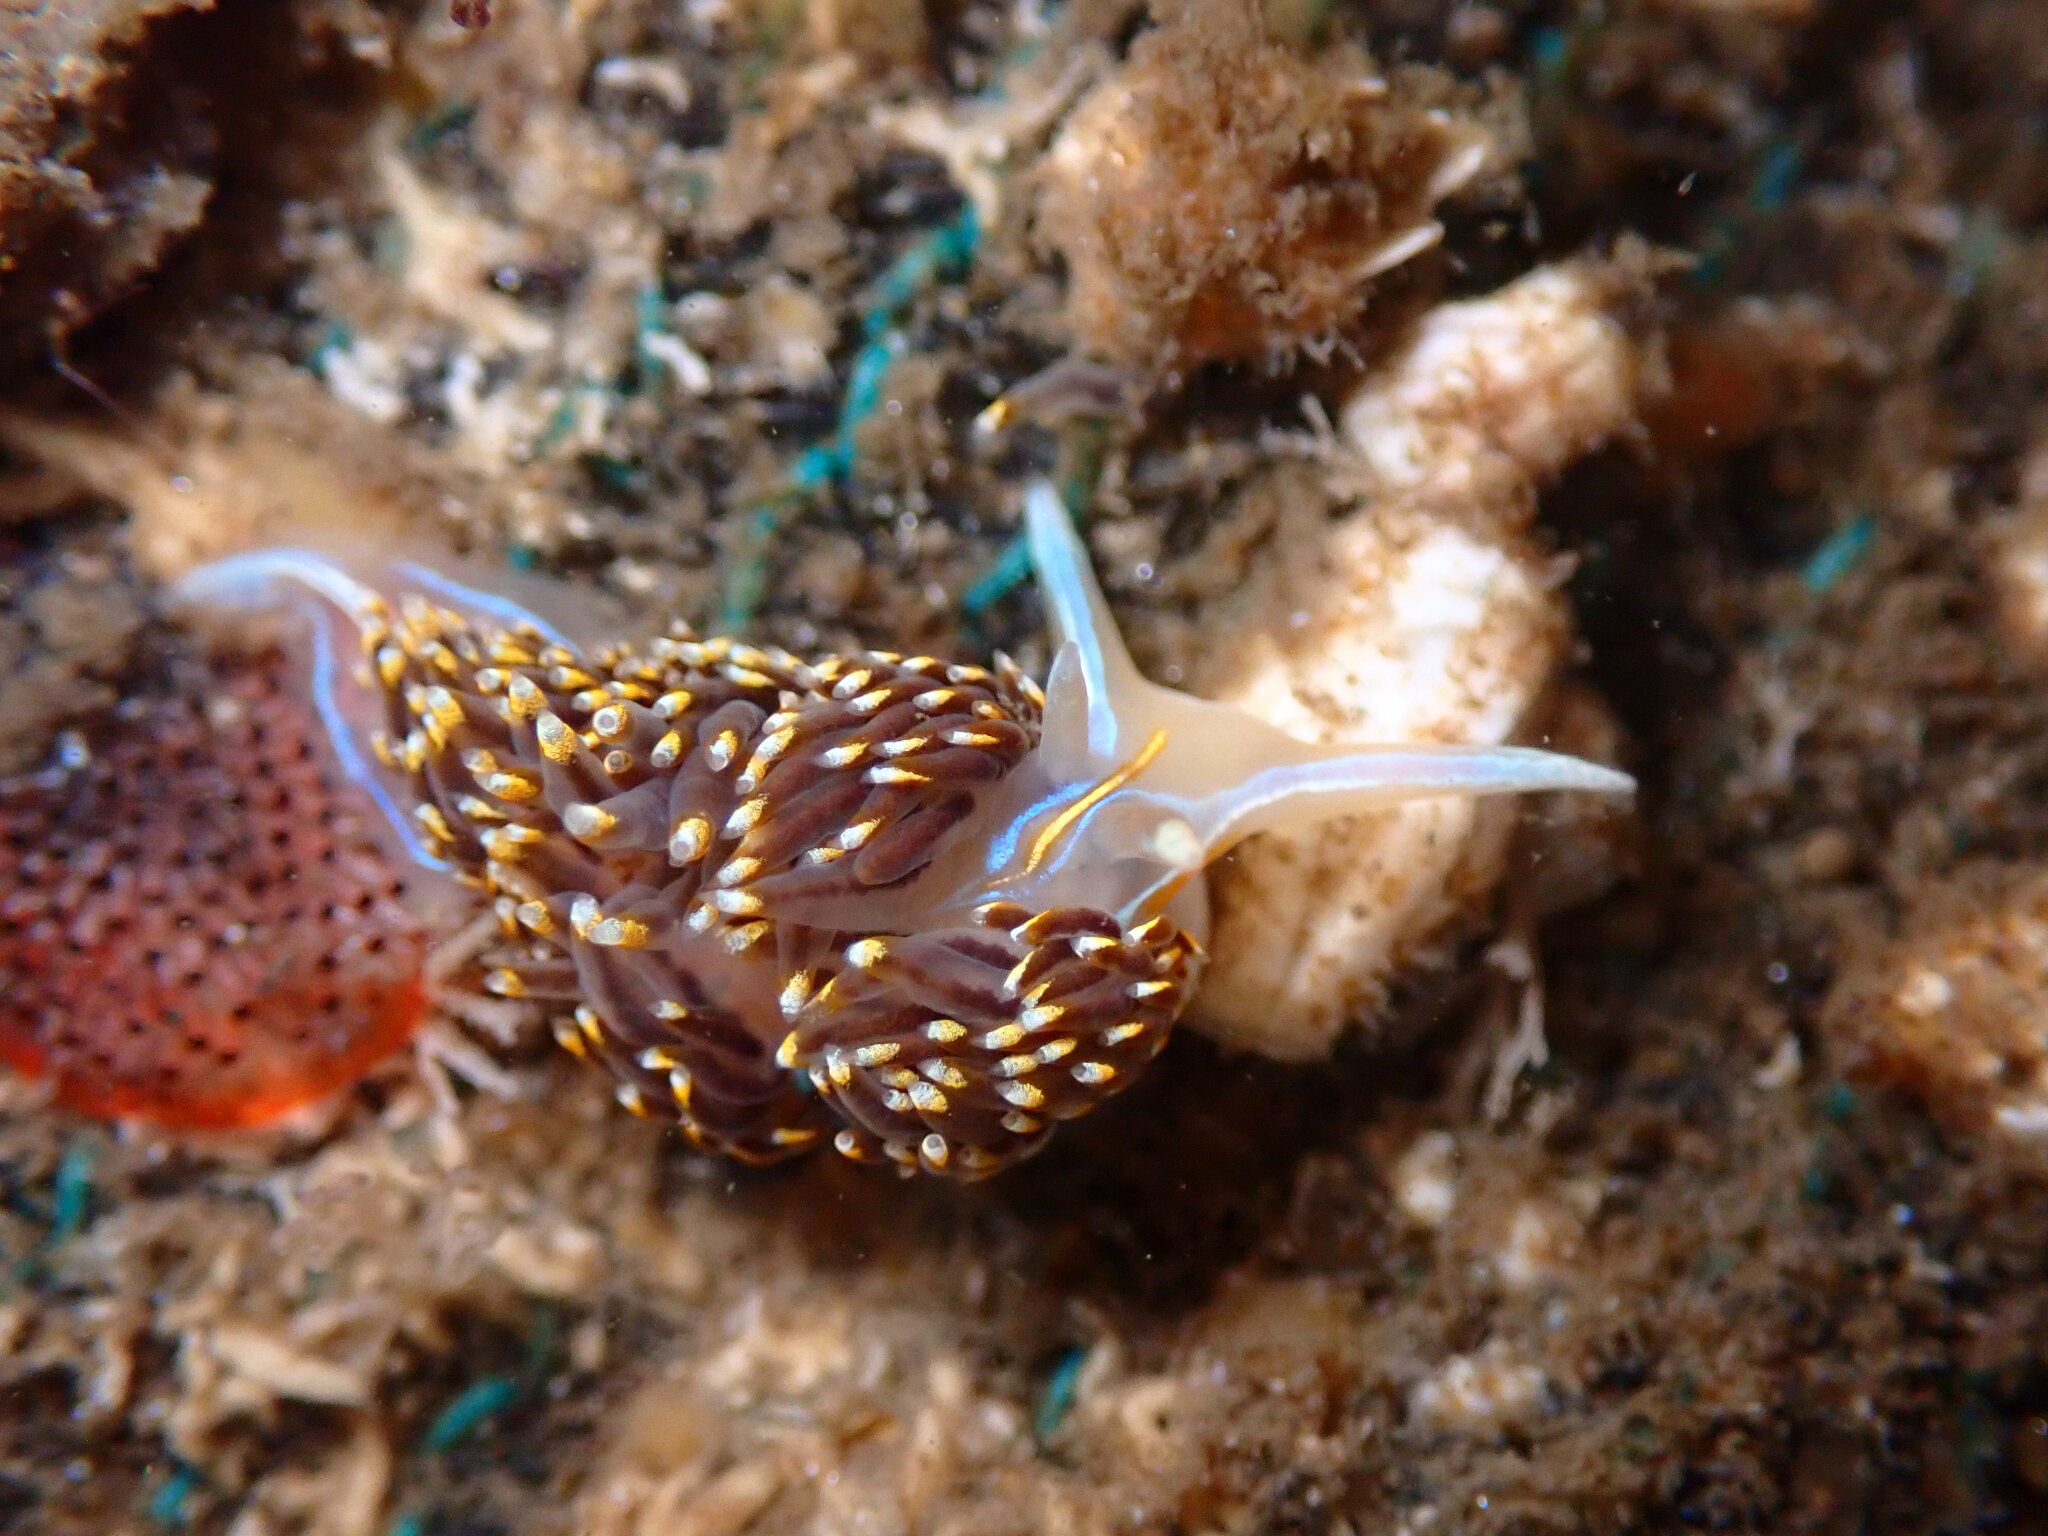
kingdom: Animalia
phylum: Mollusca
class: Gastropoda
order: Nudibranchia
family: Myrrhinidae
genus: Hermissenda
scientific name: Hermissenda opalescens
